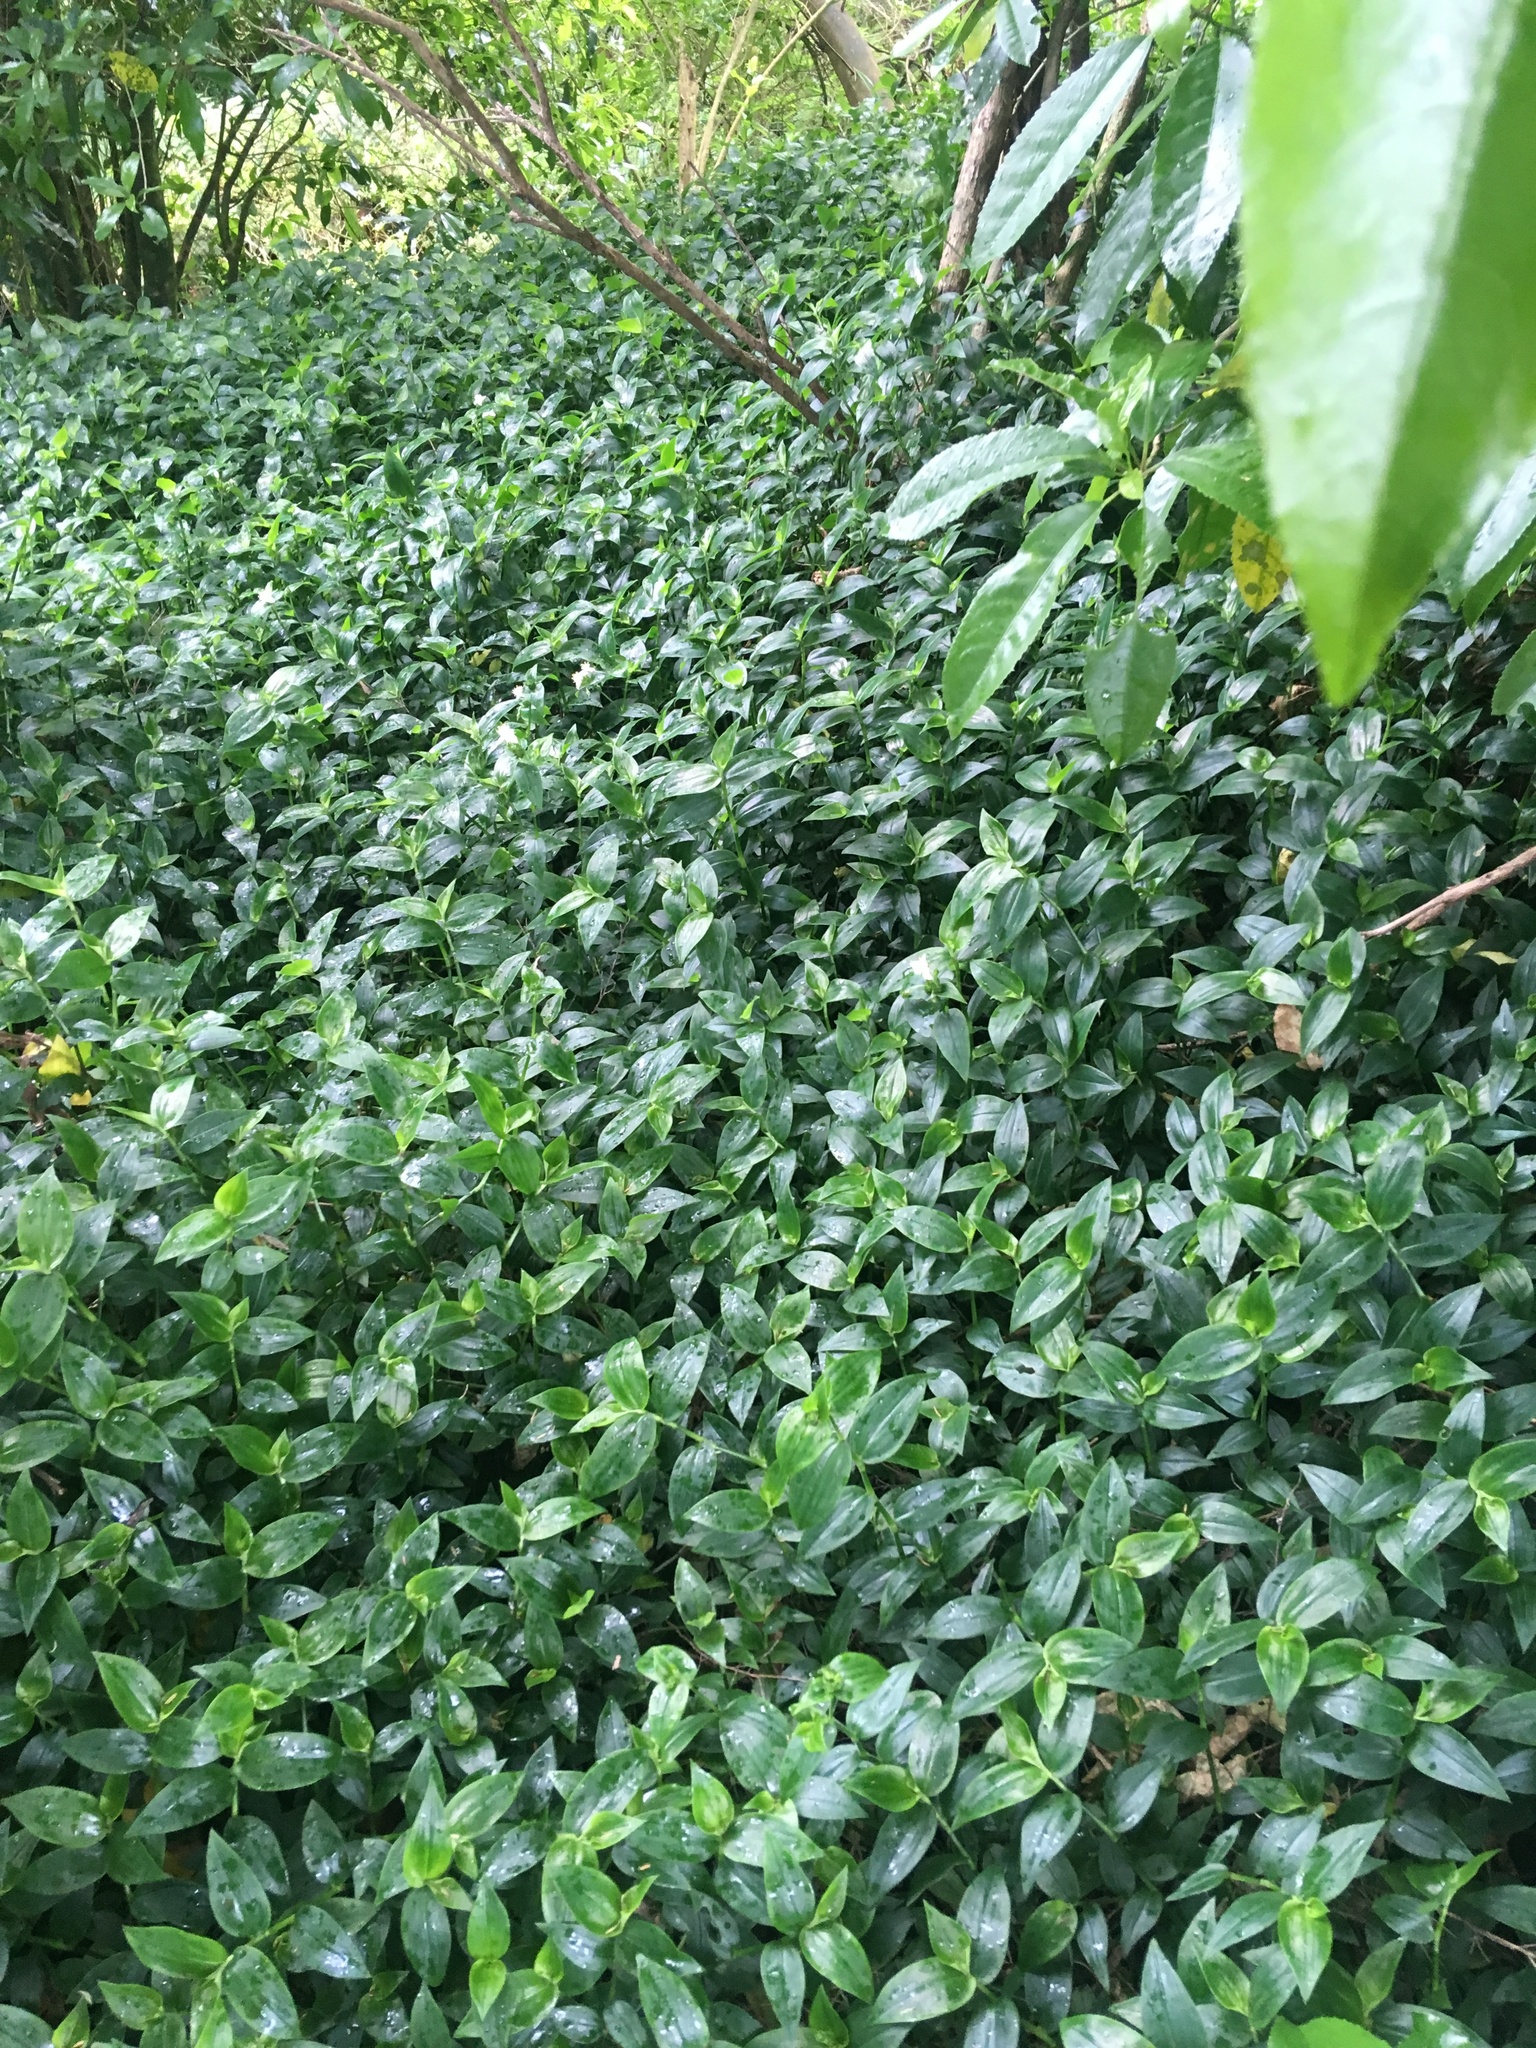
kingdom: Plantae
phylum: Tracheophyta
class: Liliopsida
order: Commelinales
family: Commelinaceae
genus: Tradescantia
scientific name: Tradescantia fluminensis
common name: Wandering-jew
